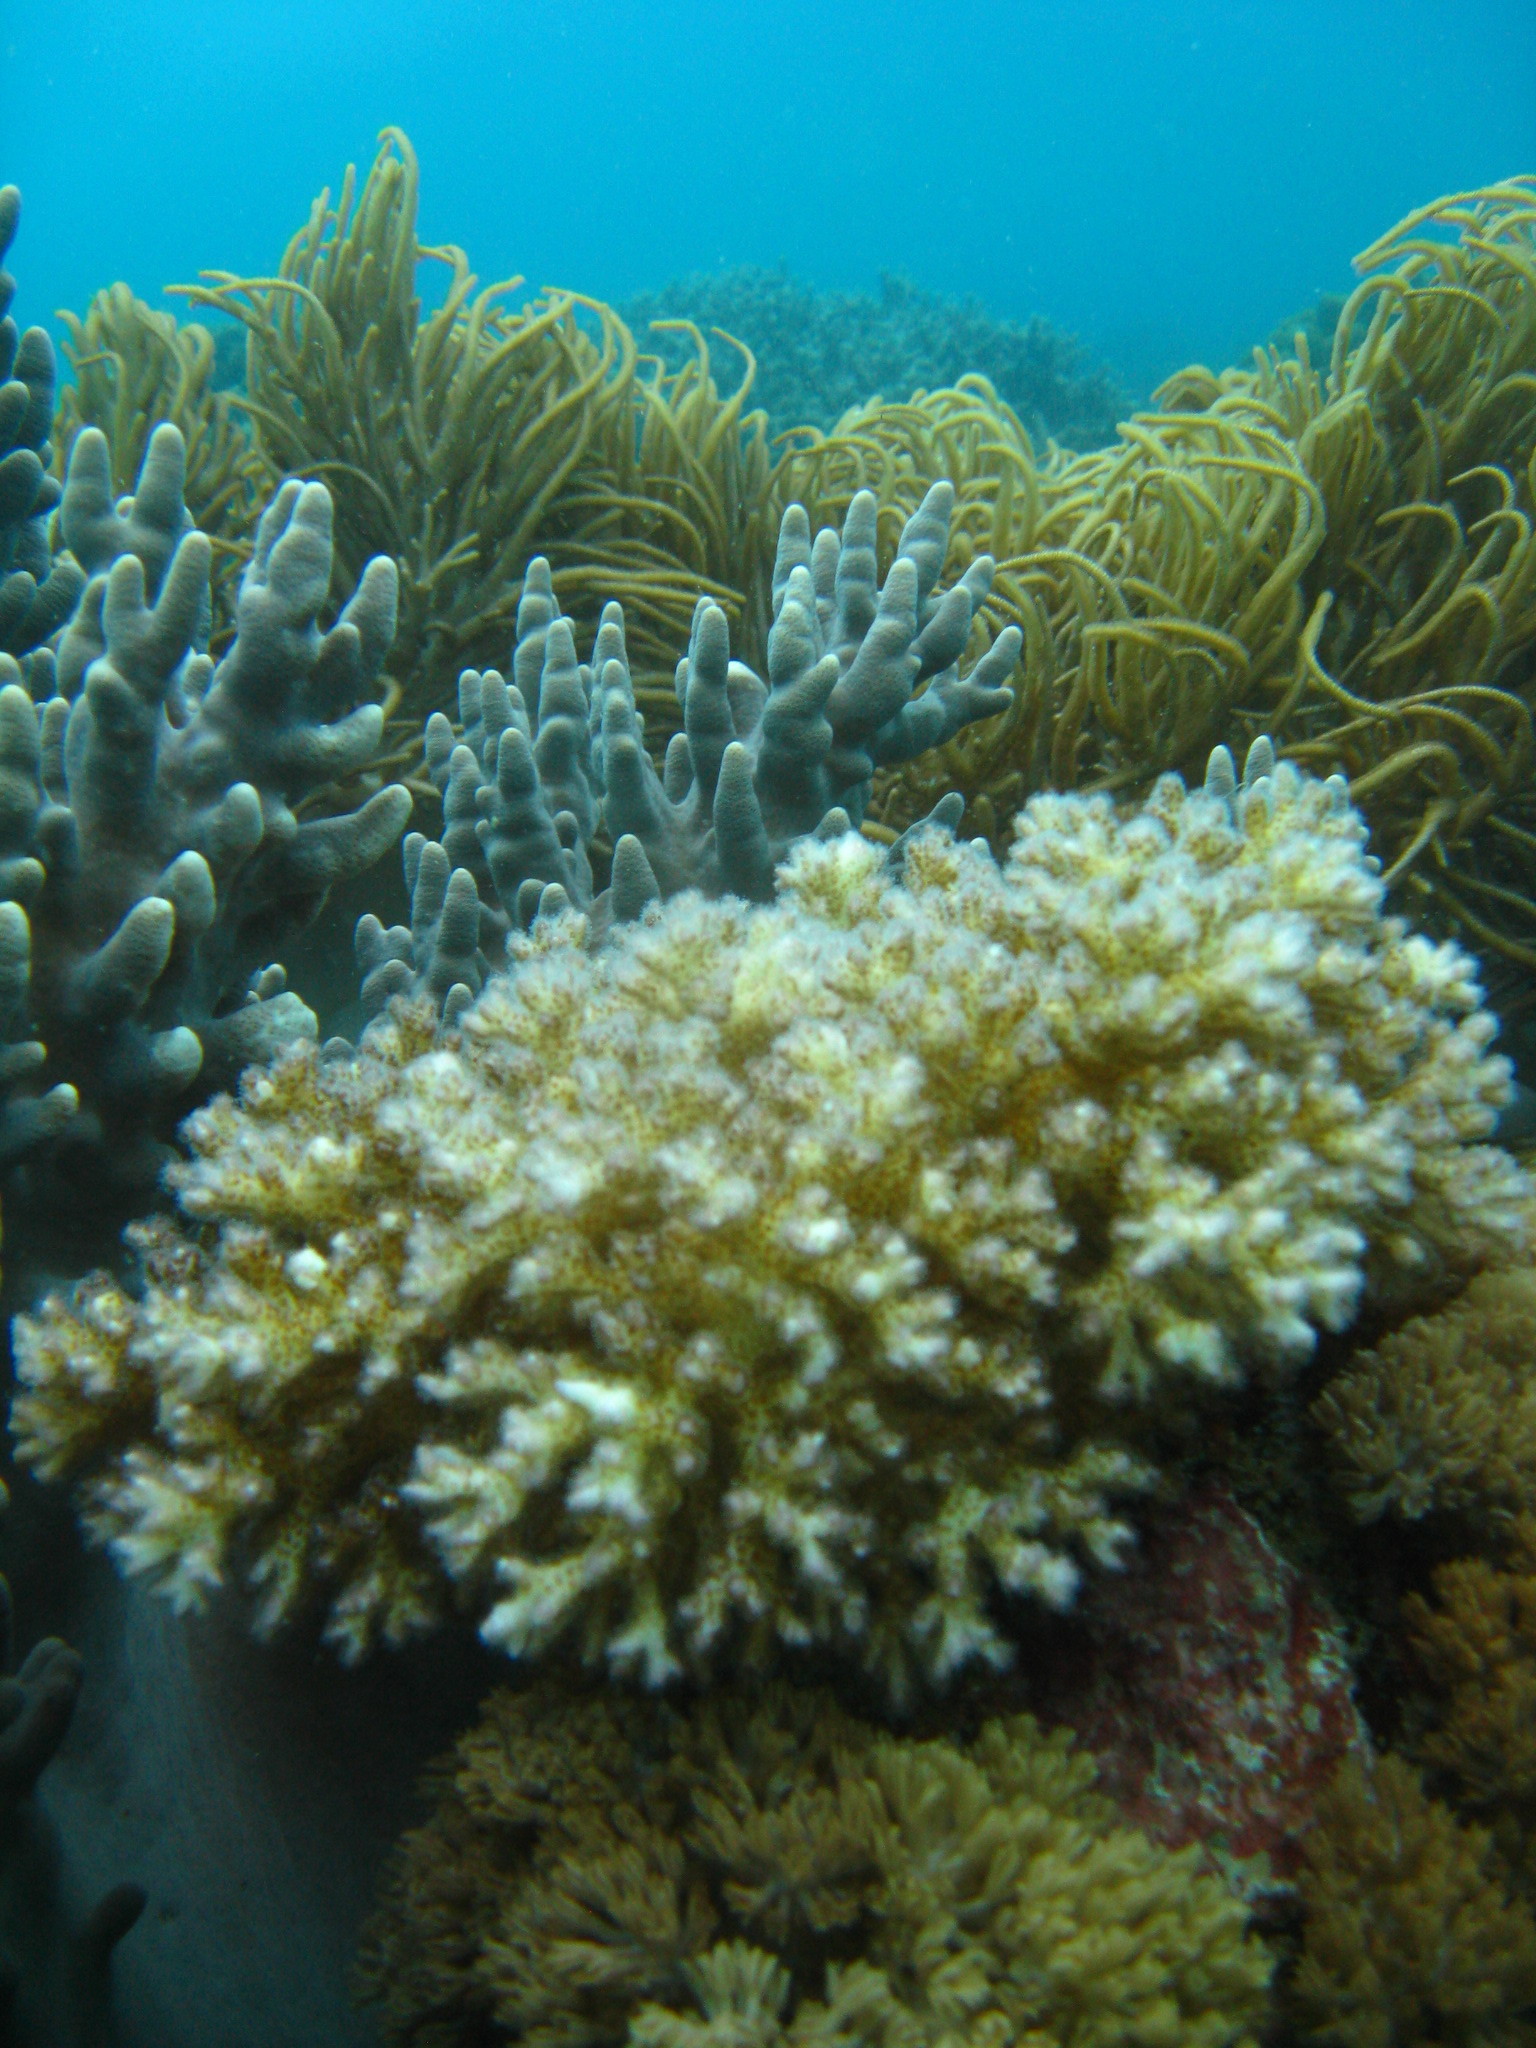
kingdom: Animalia
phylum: Cnidaria
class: Anthozoa
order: Scleractinia
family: Pocilloporidae
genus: Pocillopora
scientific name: Pocillopora damicornis
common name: Cauliflower coral
